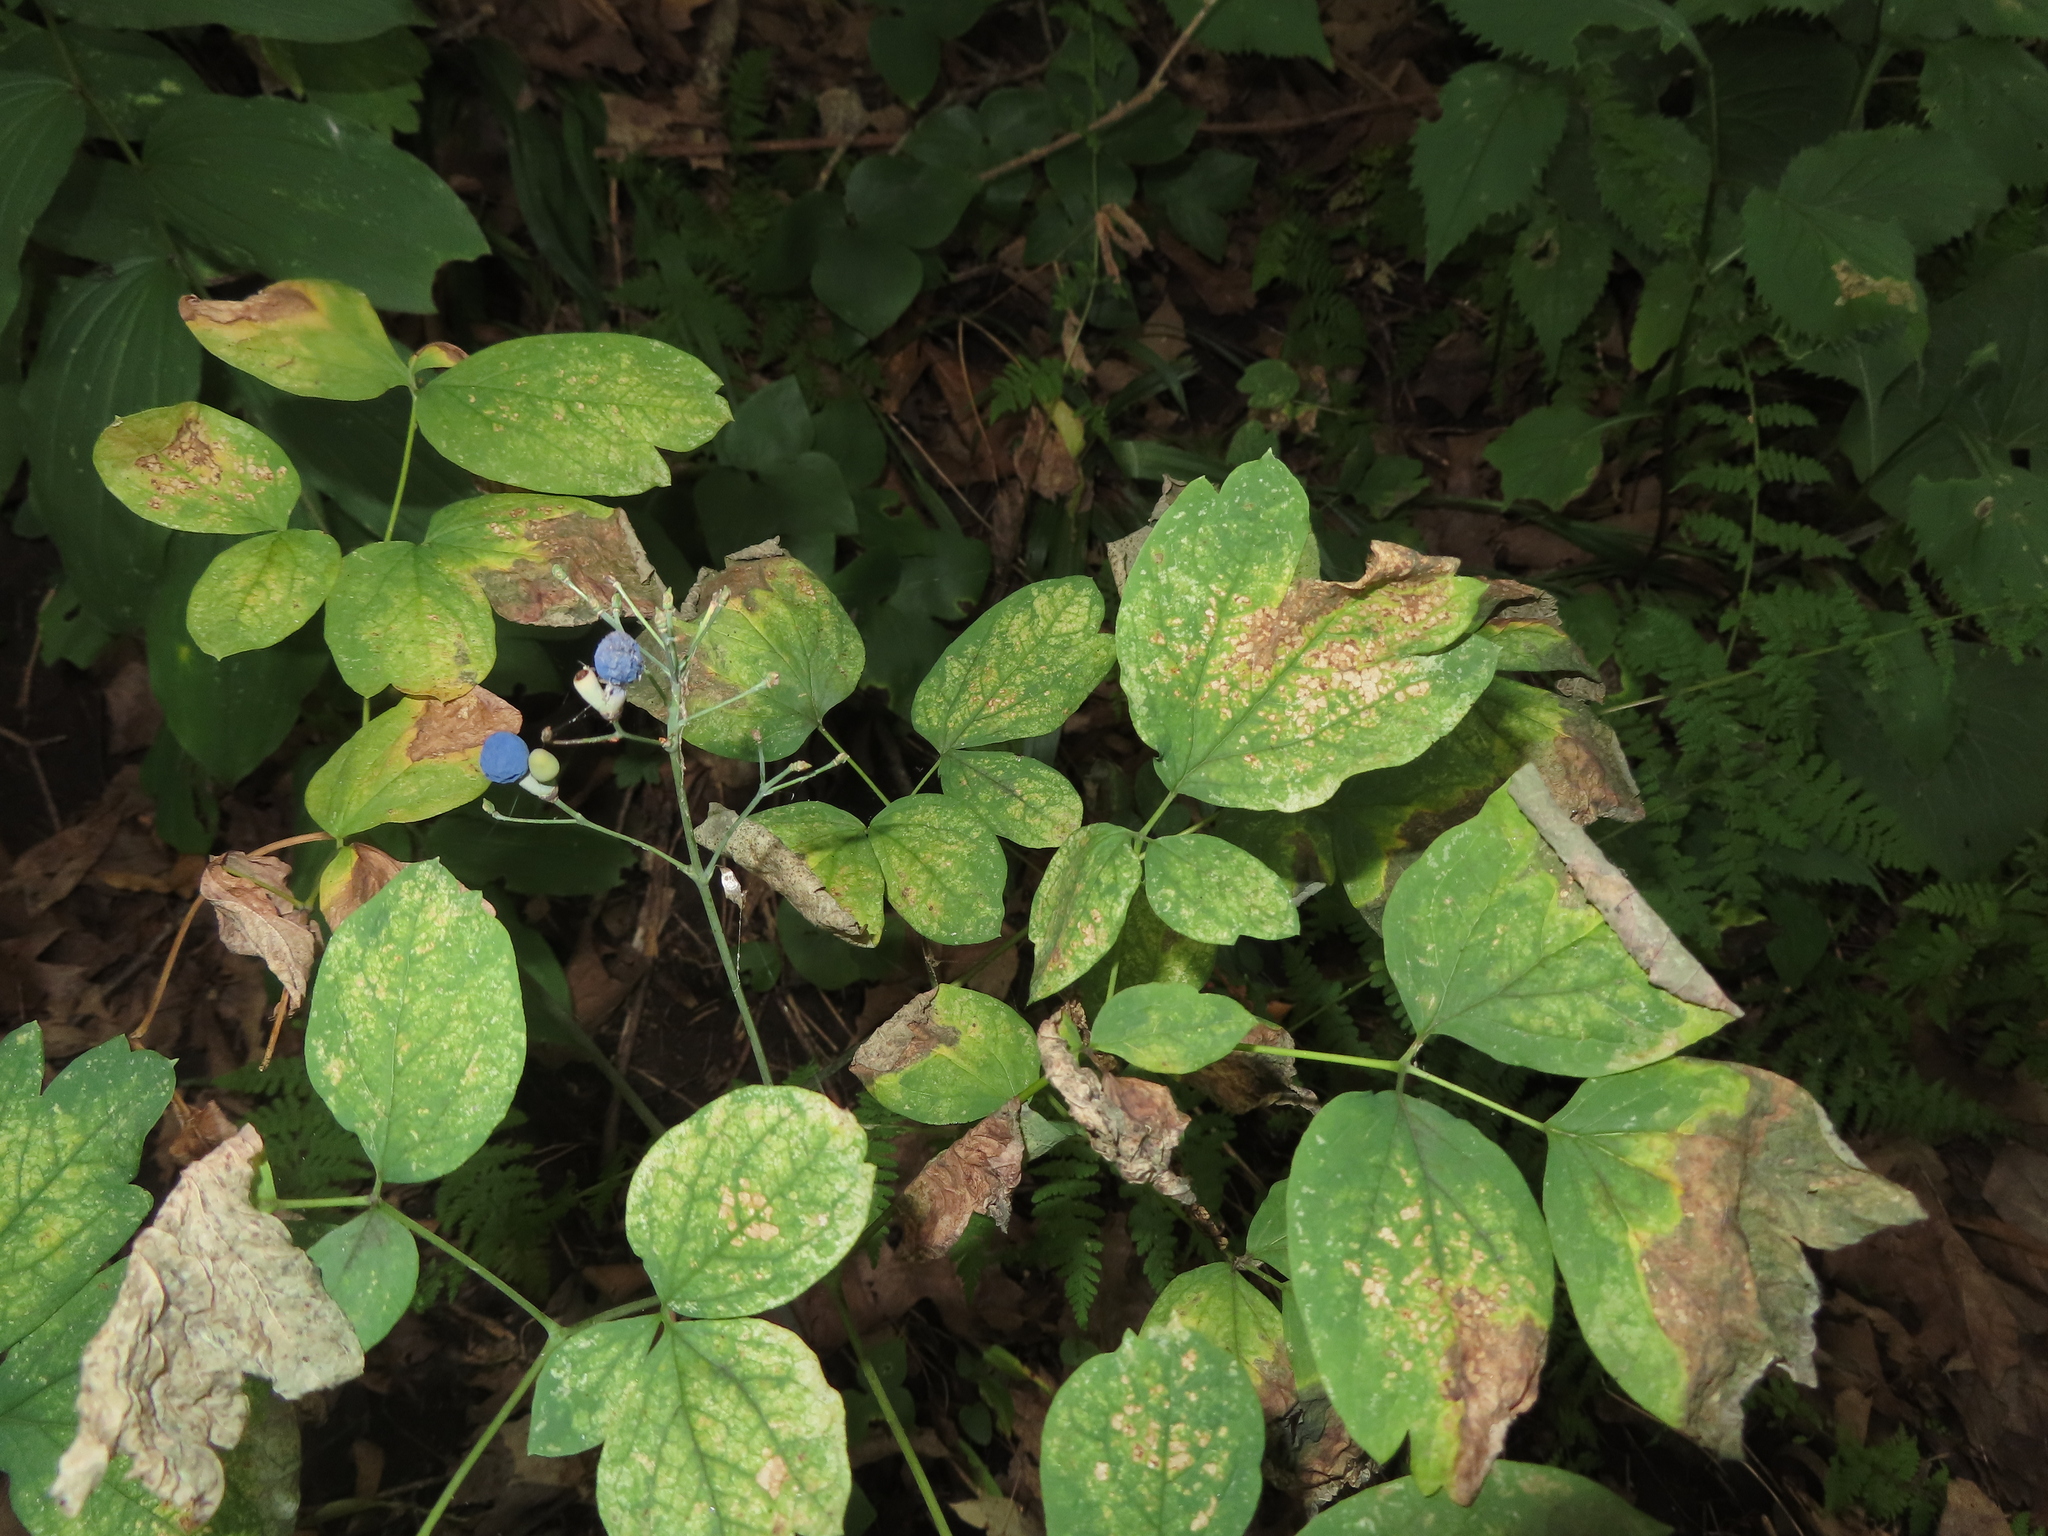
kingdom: Plantae
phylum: Tracheophyta
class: Magnoliopsida
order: Ranunculales
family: Berberidaceae
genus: Caulophyllum
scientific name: Caulophyllum thalictroides
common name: Blue cohosh
